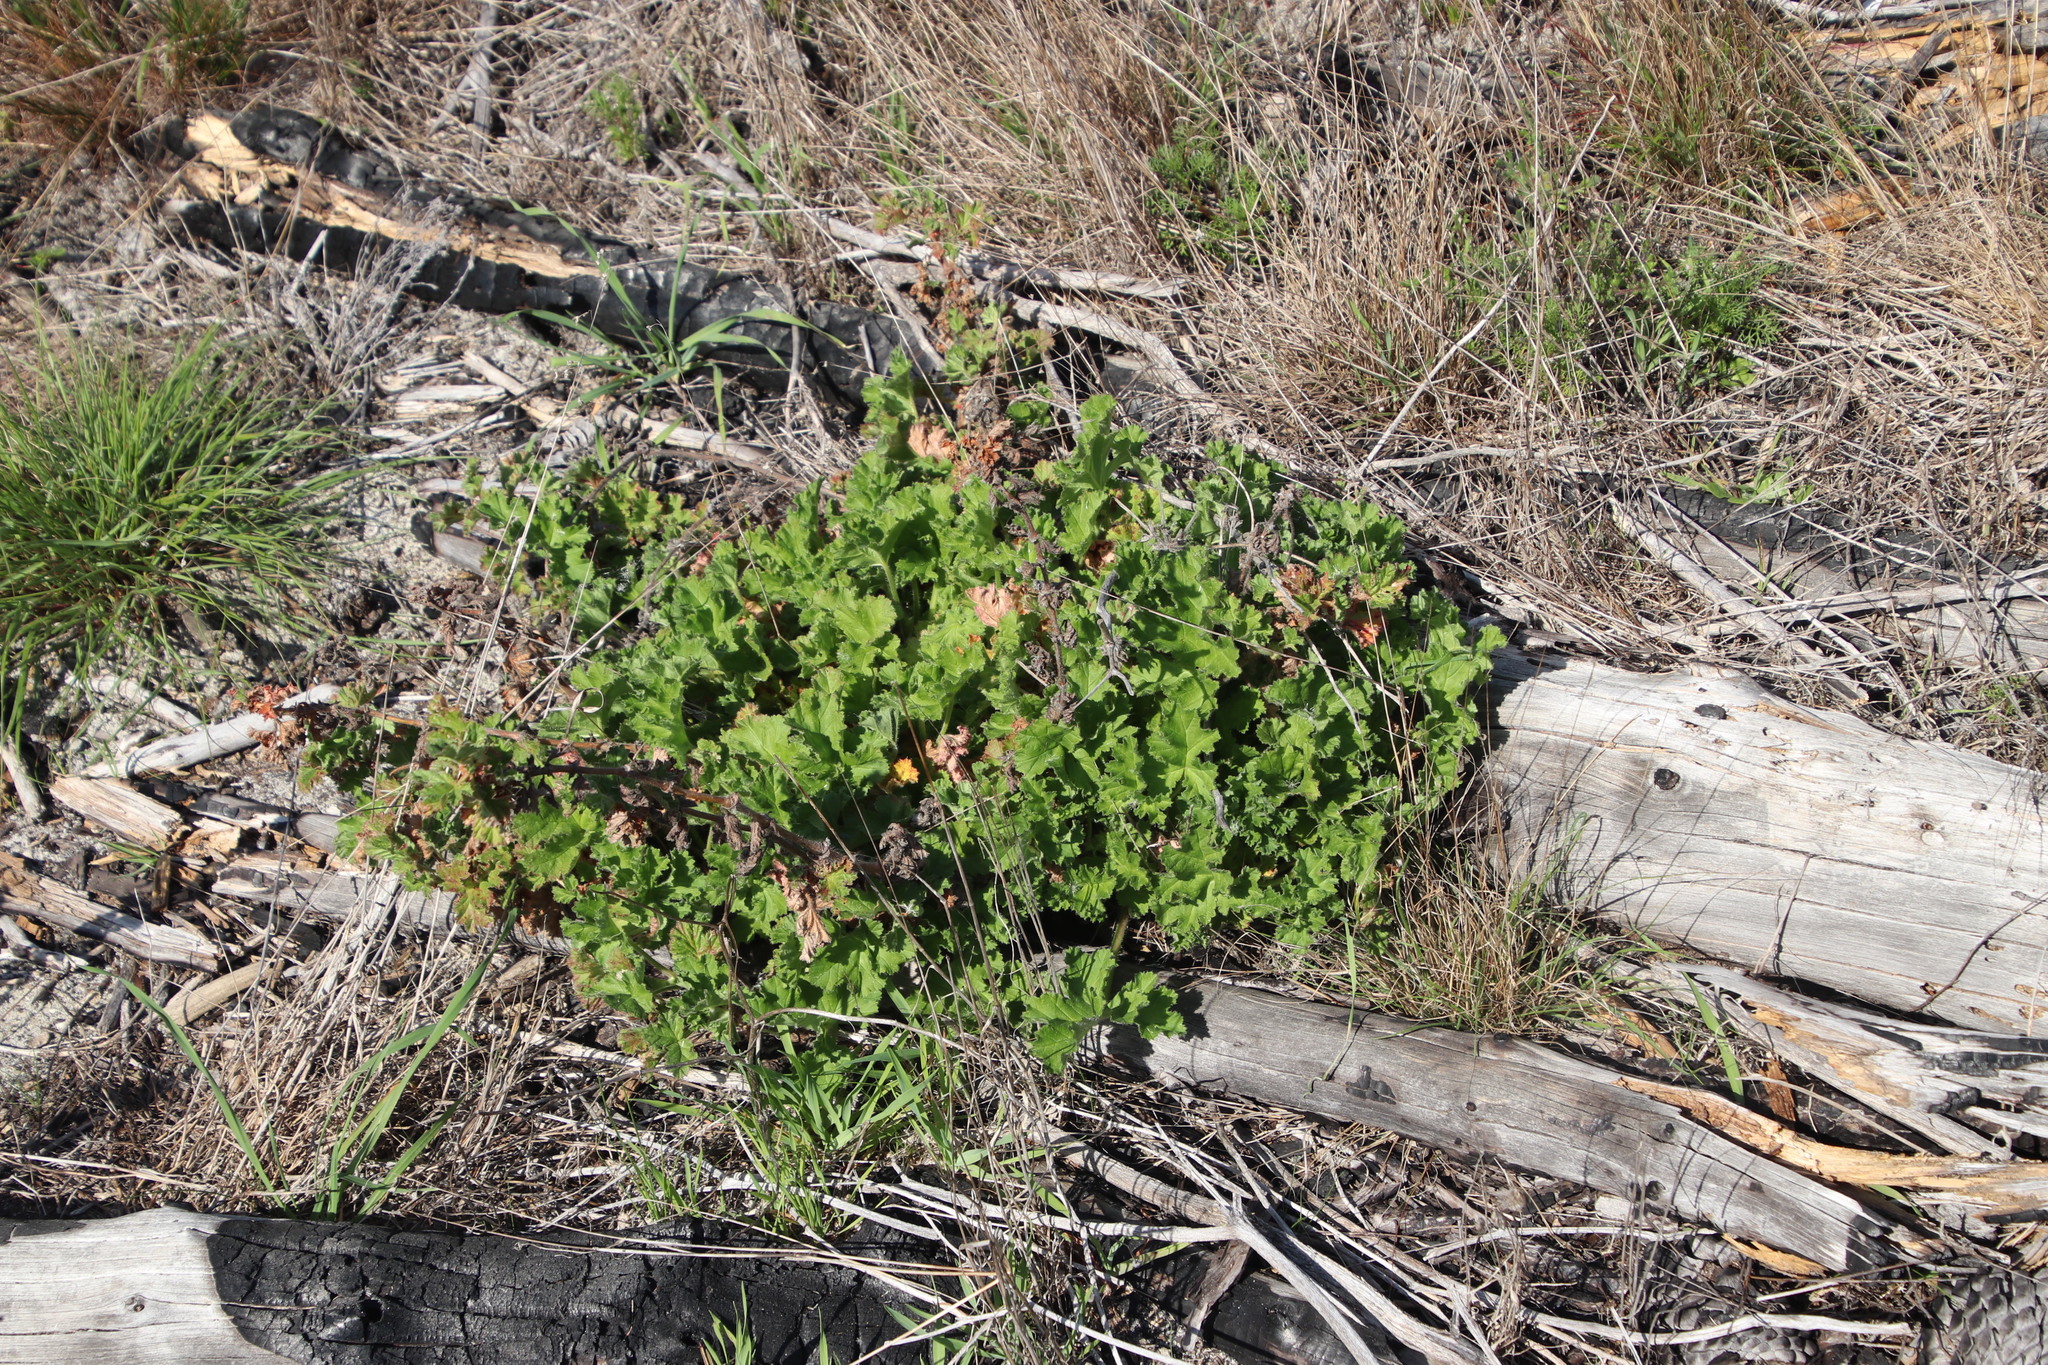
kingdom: Plantae
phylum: Tracheophyta
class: Magnoliopsida
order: Geraniales
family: Geraniaceae
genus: Pelargonium
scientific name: Pelargonium capitatum
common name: Rose scented geranium
